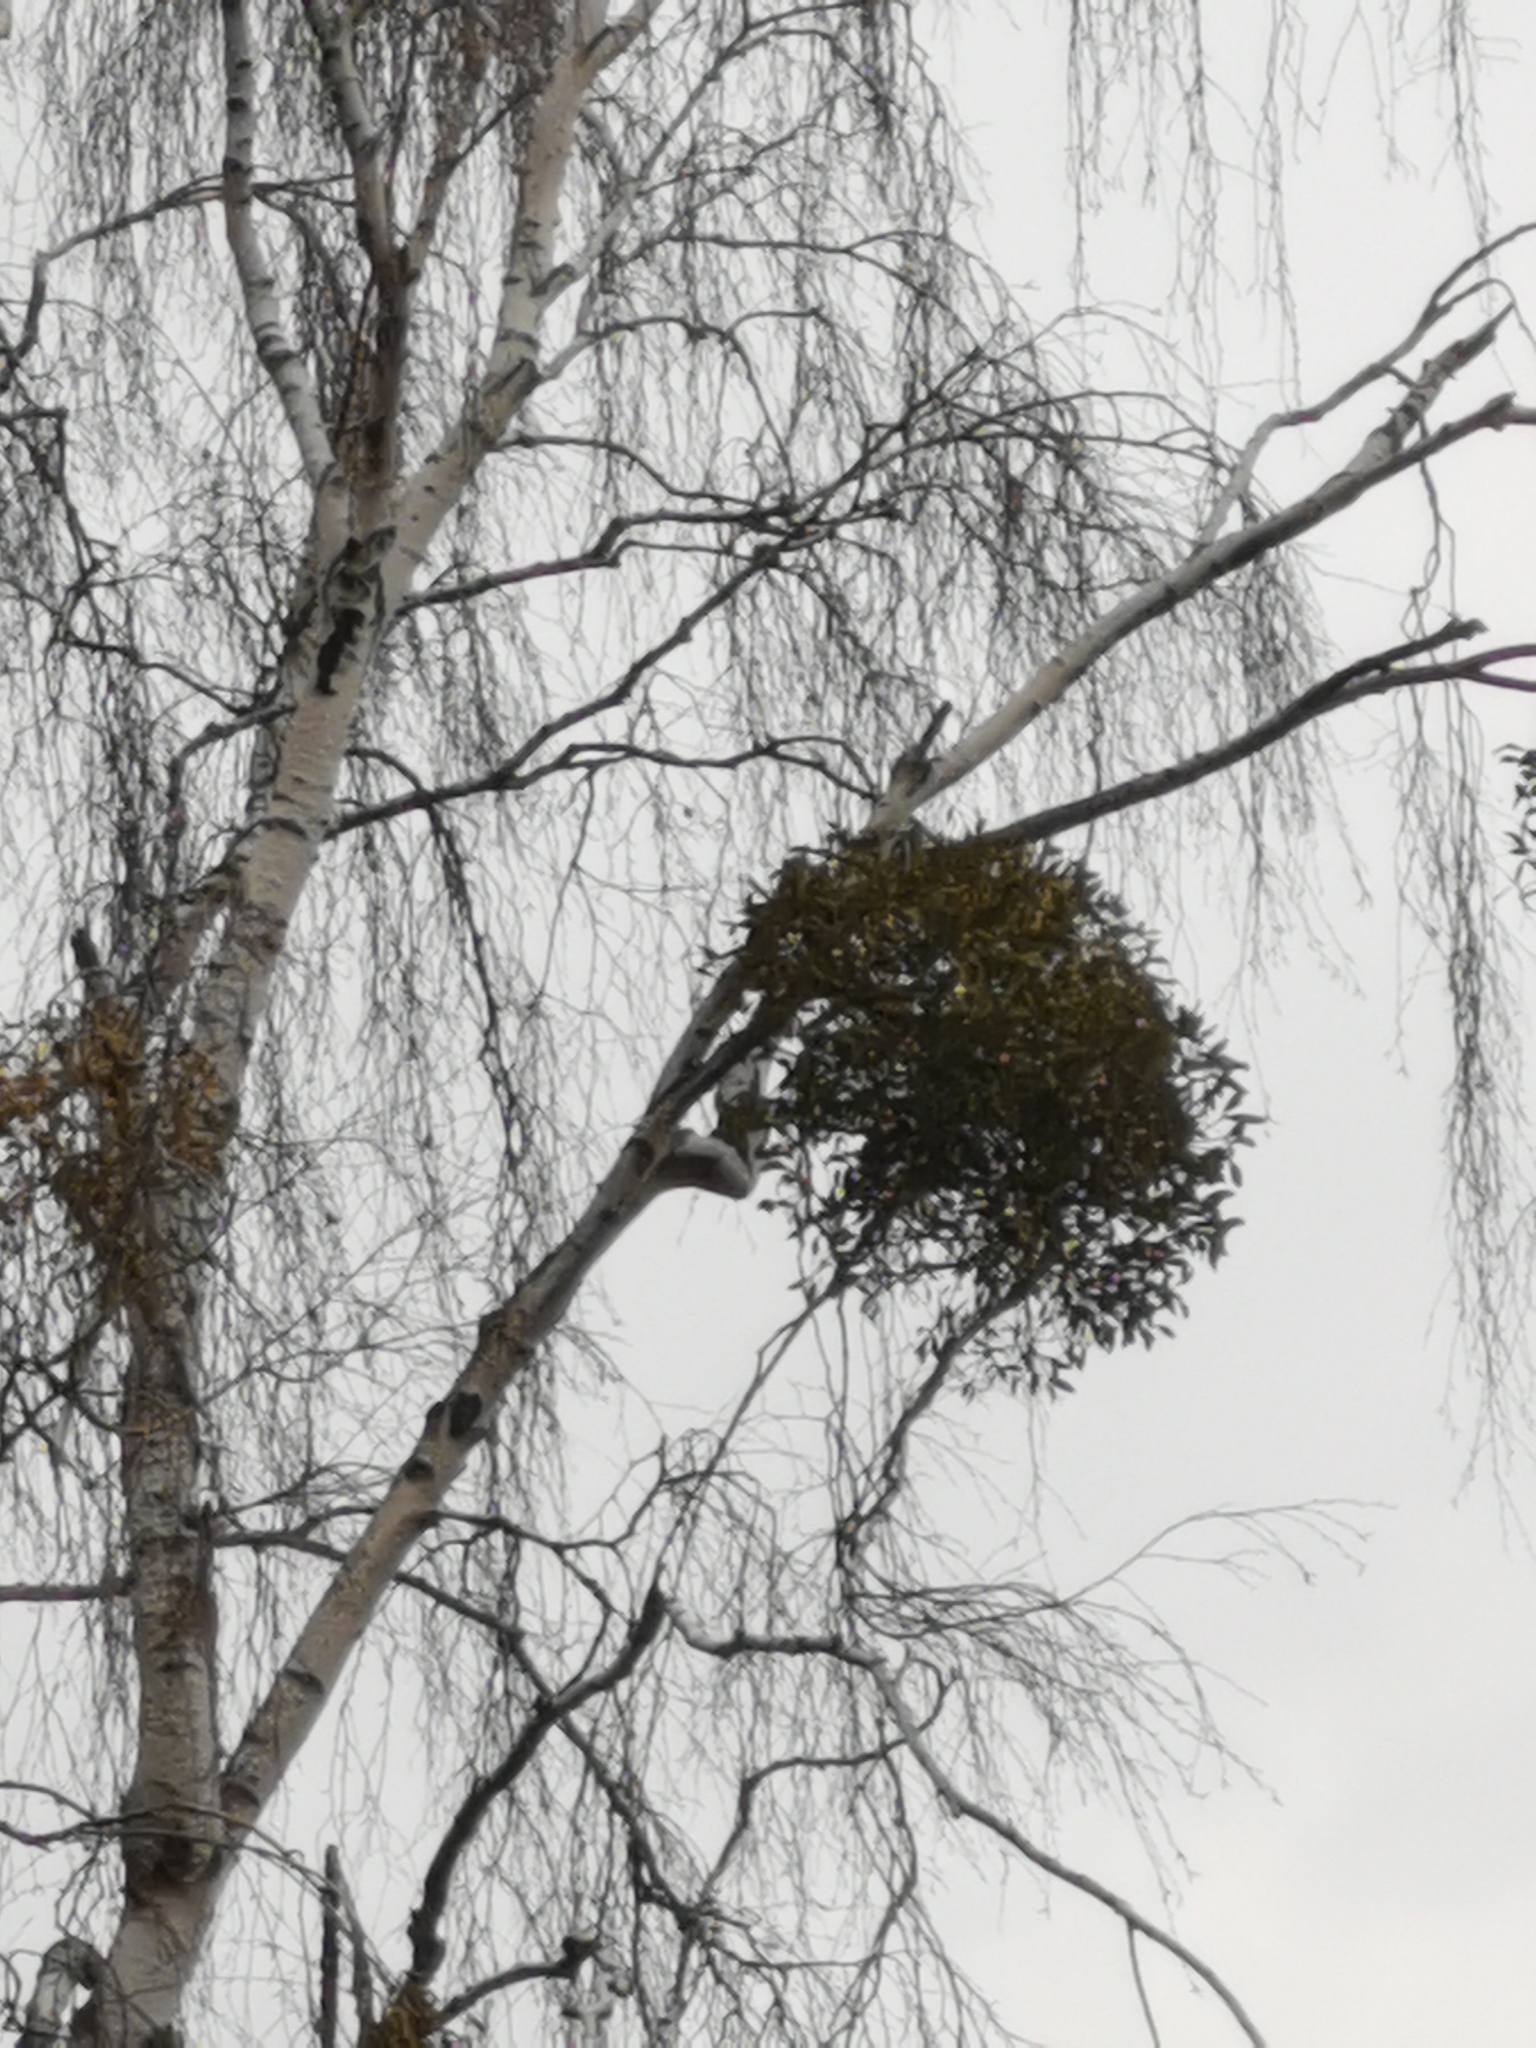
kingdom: Plantae
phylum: Tracheophyta
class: Magnoliopsida
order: Santalales
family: Viscaceae
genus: Viscum
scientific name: Viscum album
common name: Mistletoe
